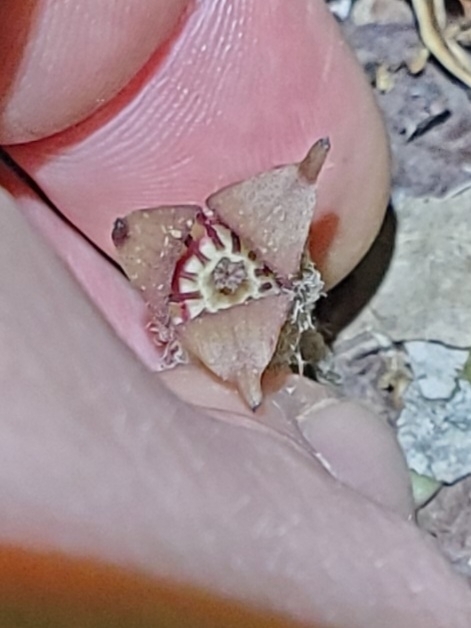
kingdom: Plantae
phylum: Tracheophyta
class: Magnoliopsida
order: Piperales
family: Aristolochiaceae
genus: Asarum
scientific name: Asarum canadense
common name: Wild ginger
